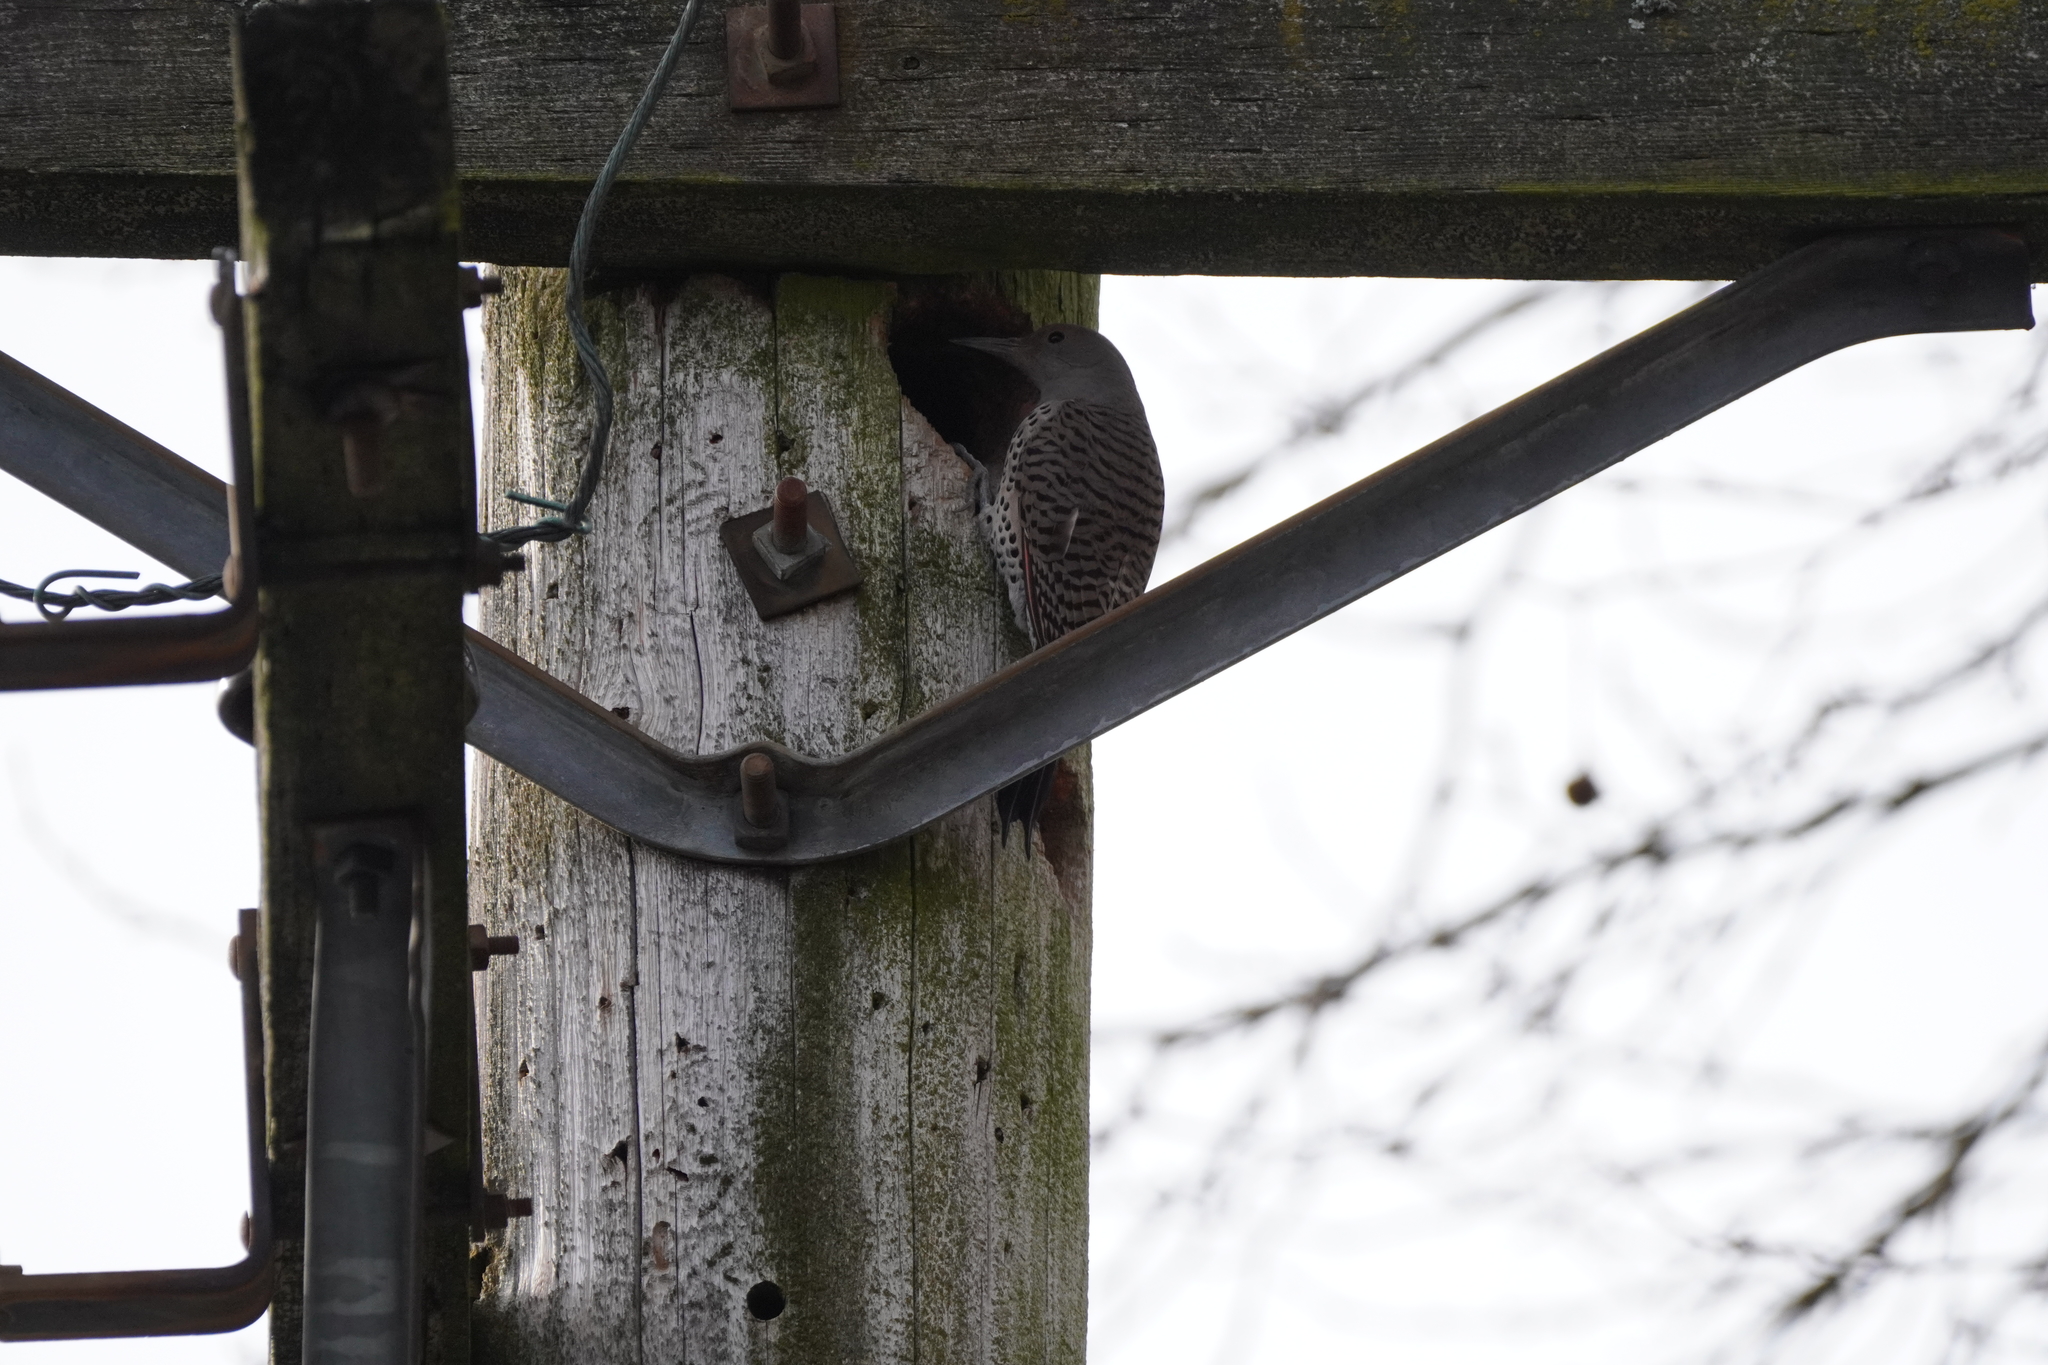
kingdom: Animalia
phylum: Chordata
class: Aves
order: Piciformes
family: Picidae
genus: Colaptes
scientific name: Colaptes auratus
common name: Northern flicker
